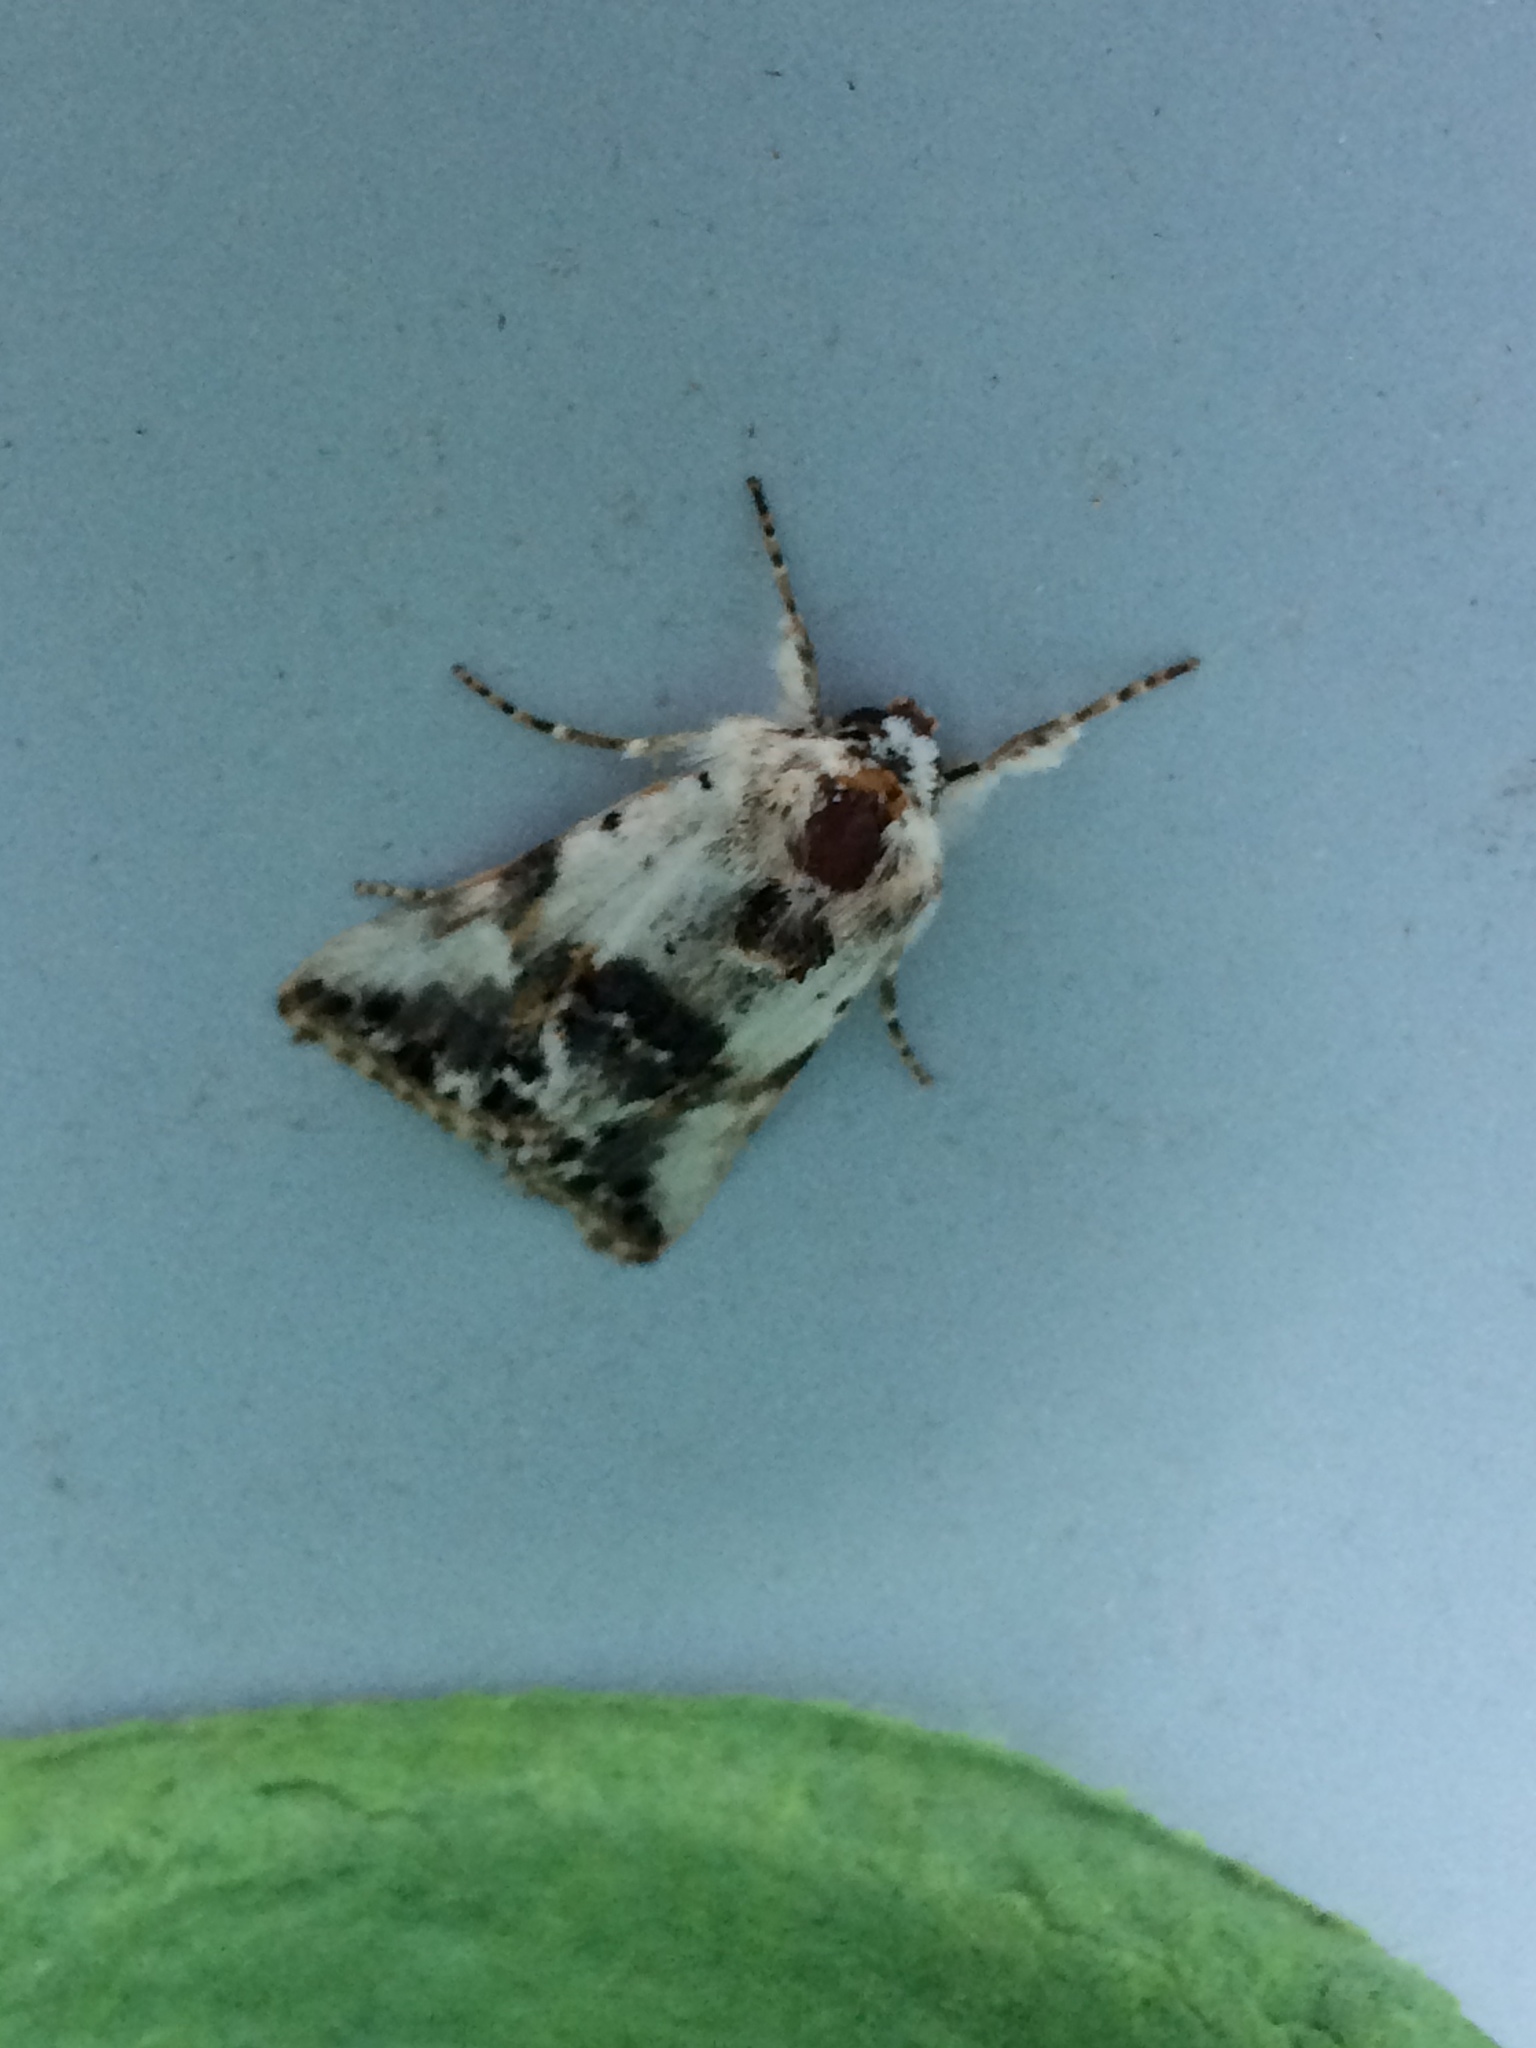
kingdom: Animalia
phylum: Arthropoda
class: Insecta
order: Lepidoptera
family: Noctuidae
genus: Calophasia
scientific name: Calophasia opalina
